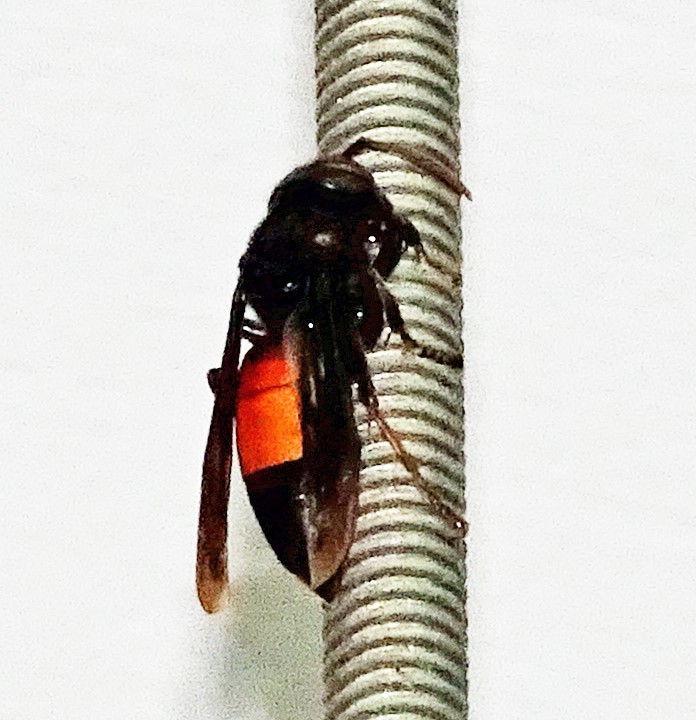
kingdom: Animalia
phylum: Arthropoda
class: Insecta
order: Hymenoptera
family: Vespidae
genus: Vespa
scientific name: Vespa affinis
